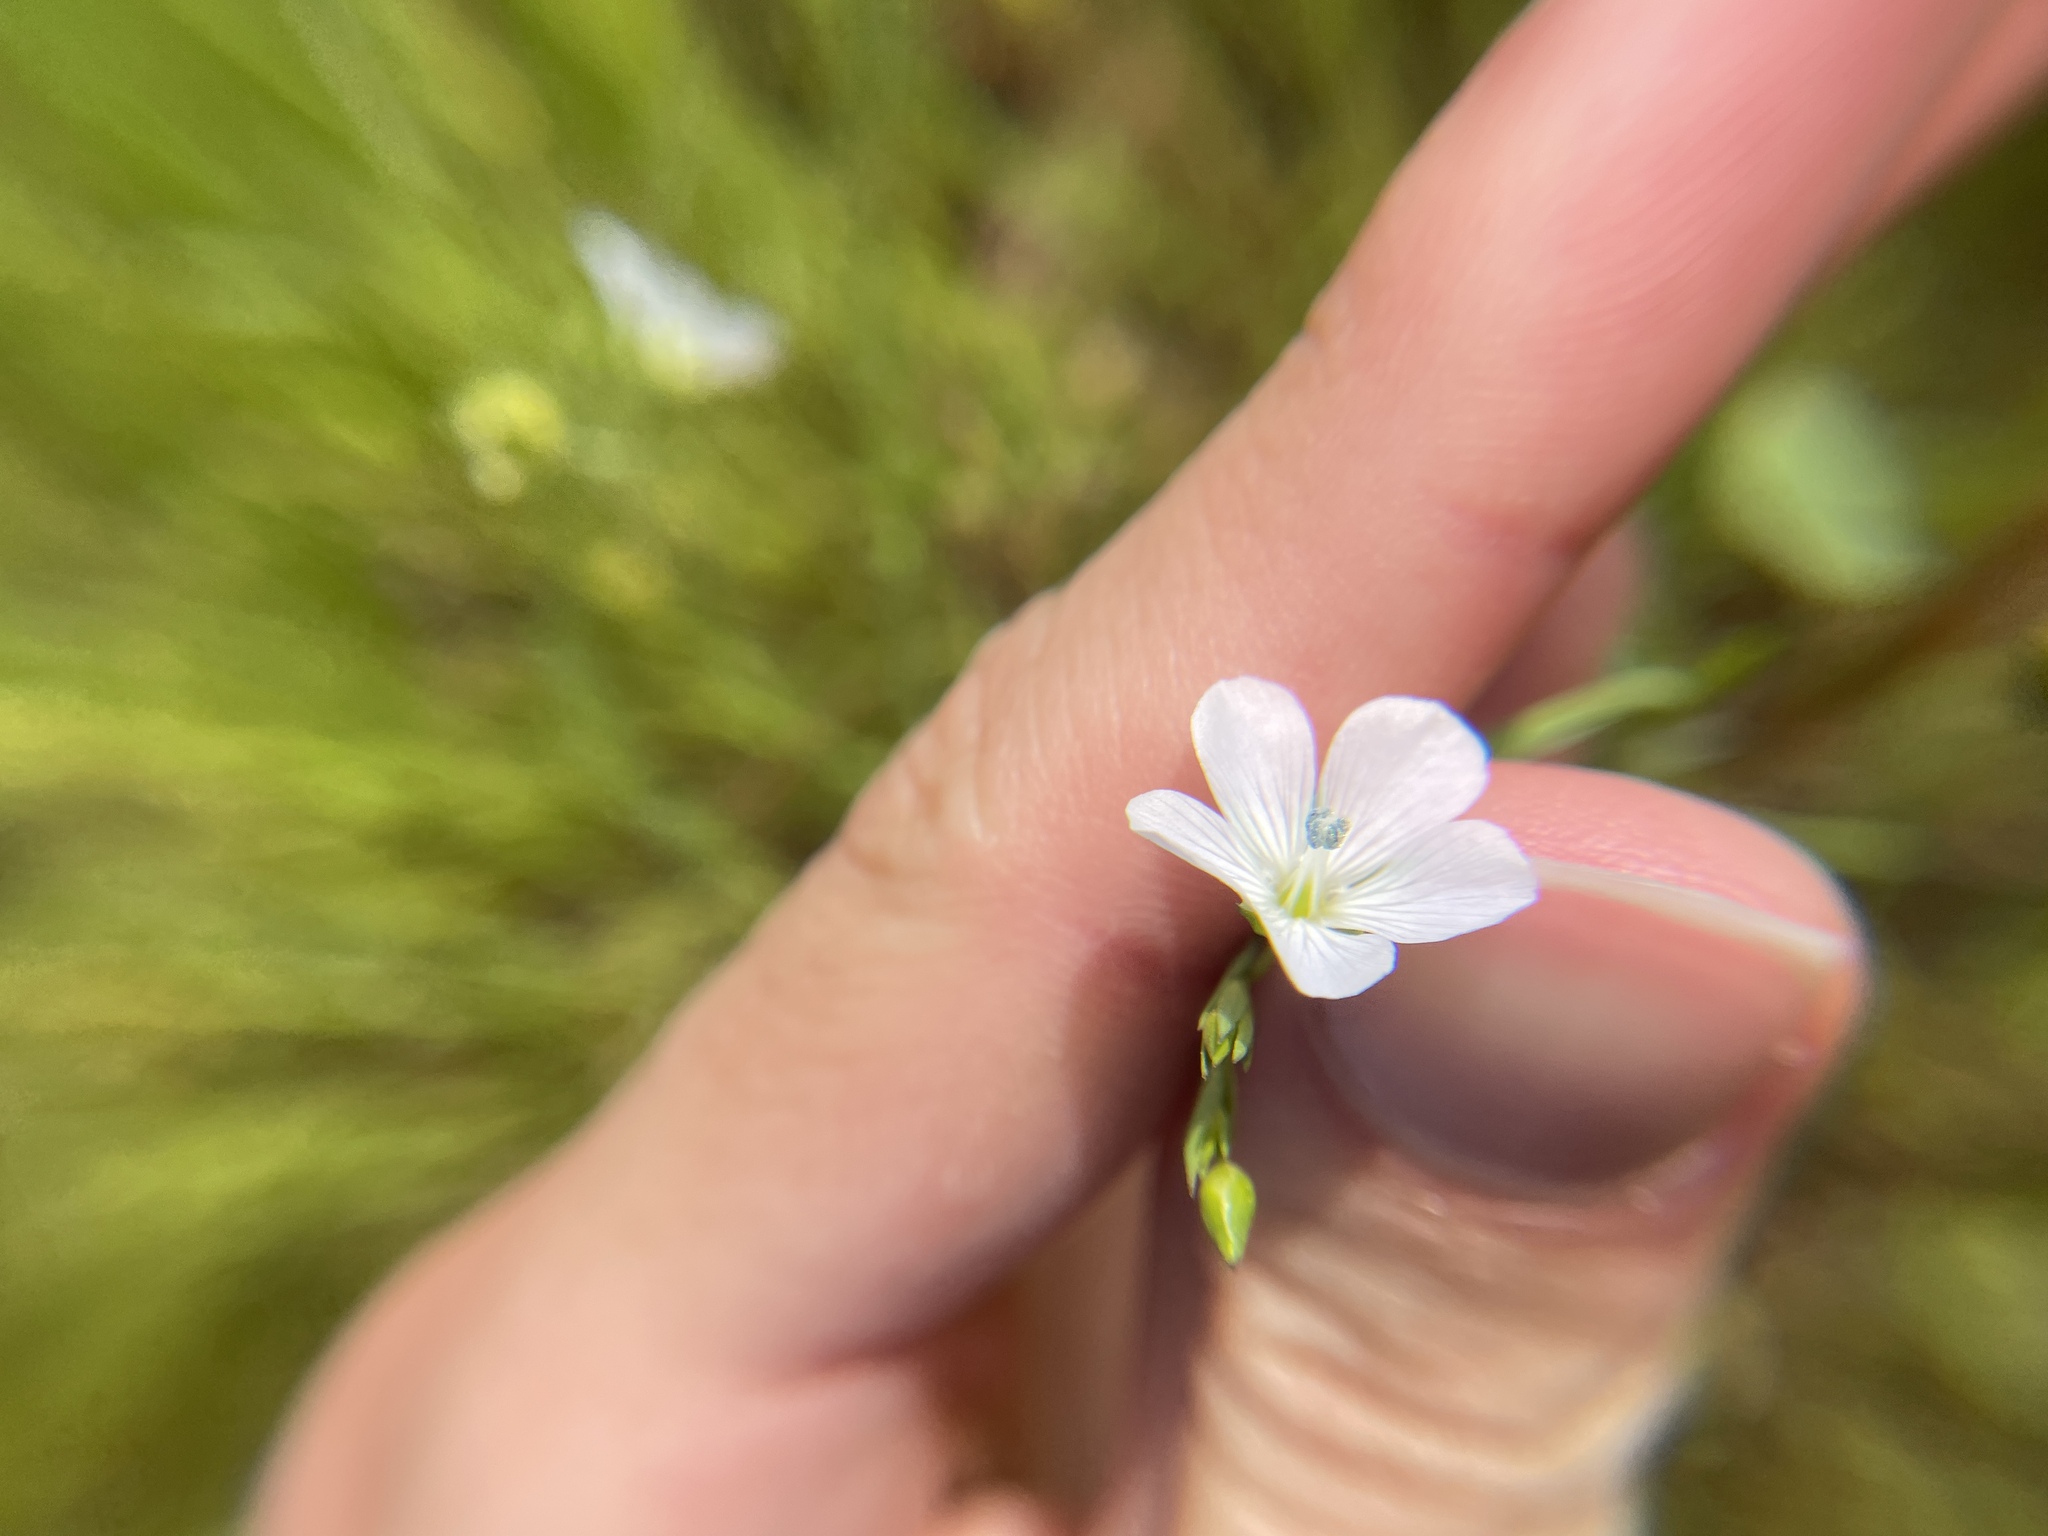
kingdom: Plantae
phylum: Tracheophyta
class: Magnoliopsida
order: Malpighiales
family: Linaceae
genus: Linum
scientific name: Linum bienne
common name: Pale flax
